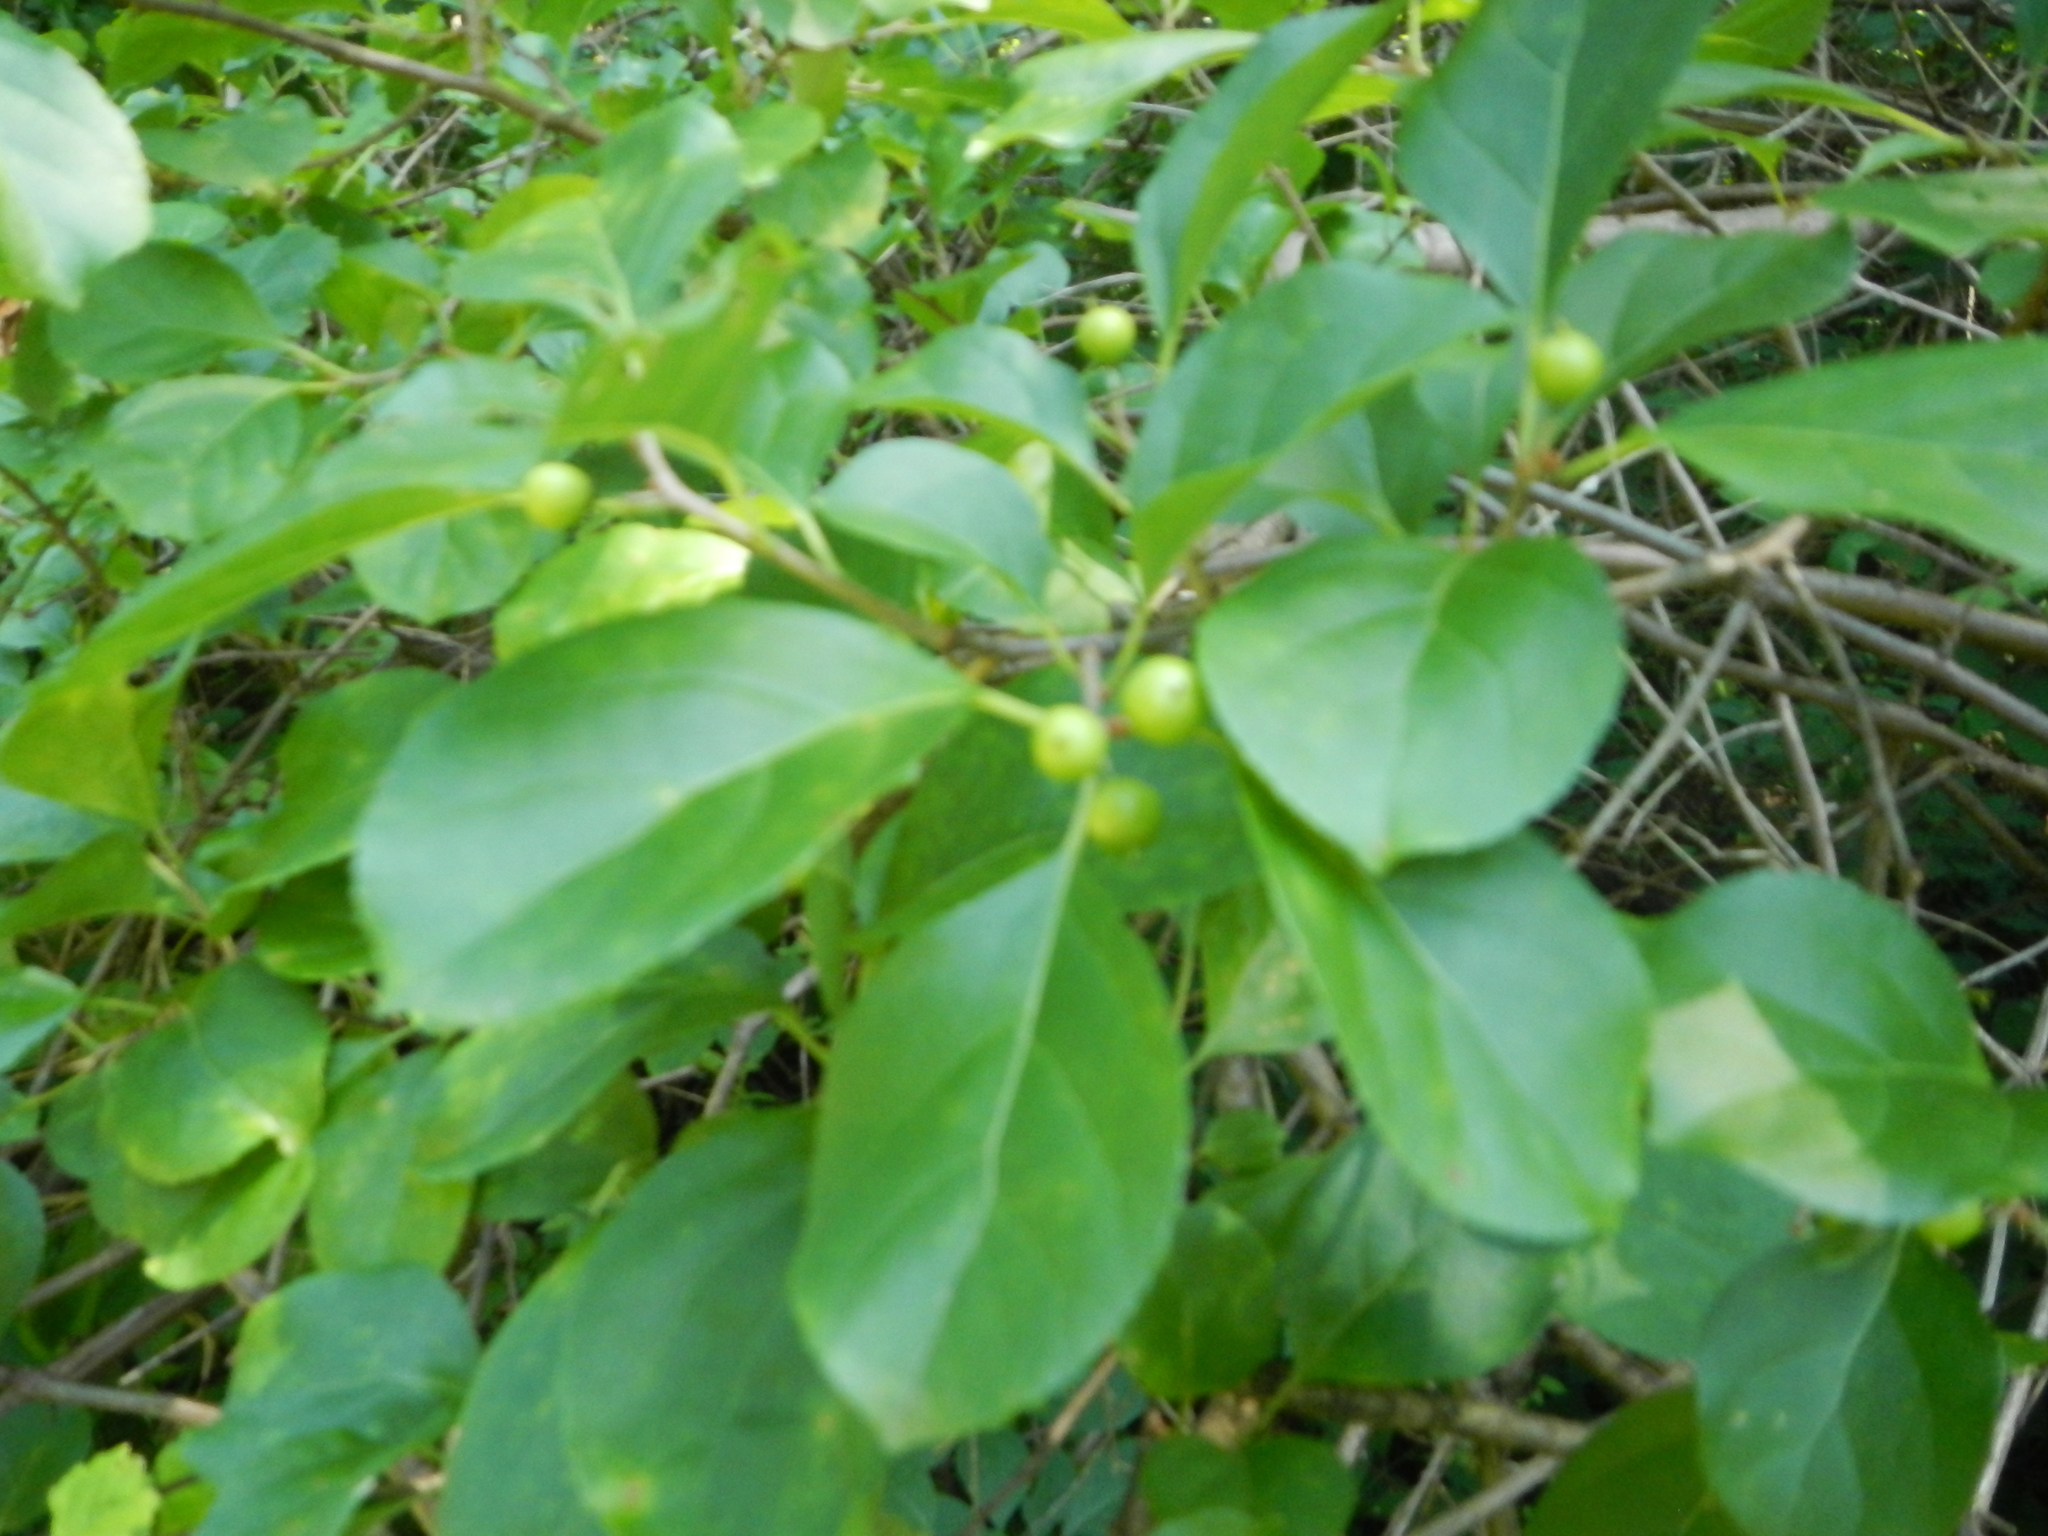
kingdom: Plantae
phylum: Tracheophyta
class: Magnoliopsida
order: Celastrales
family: Celastraceae
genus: Celastrus
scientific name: Celastrus orbiculatus
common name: Oriental bittersweet
